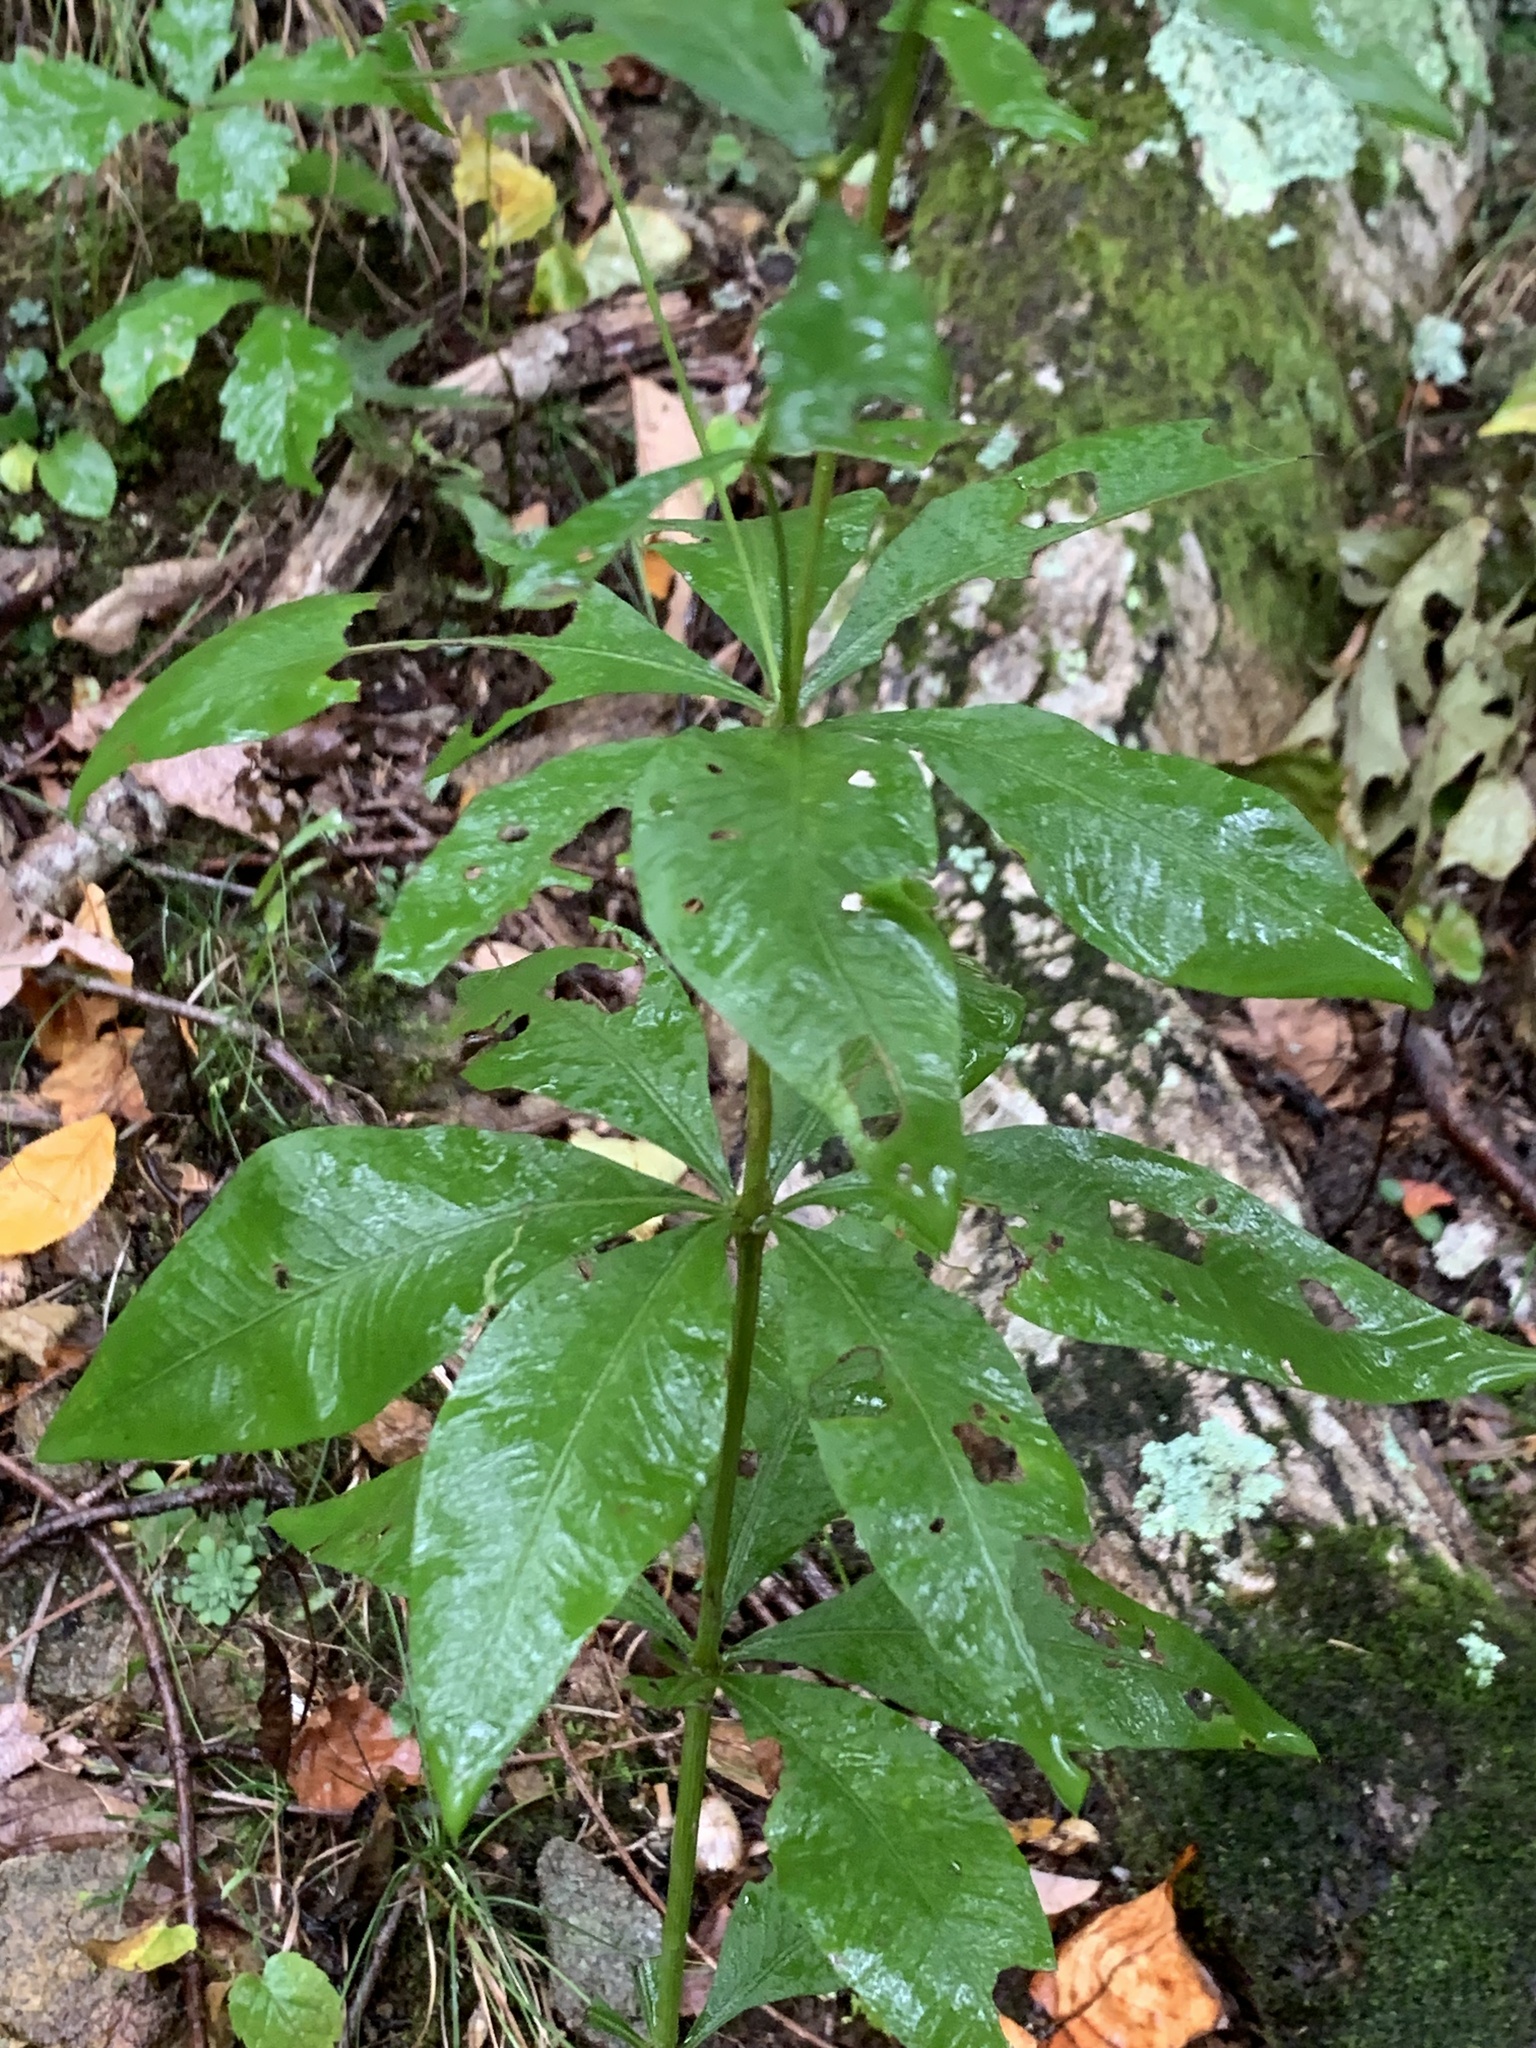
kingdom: Plantae
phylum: Tracheophyta
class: Magnoliopsida
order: Asterales
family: Asteraceae
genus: Coreopsis
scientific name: Coreopsis major
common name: Forest tickseed
